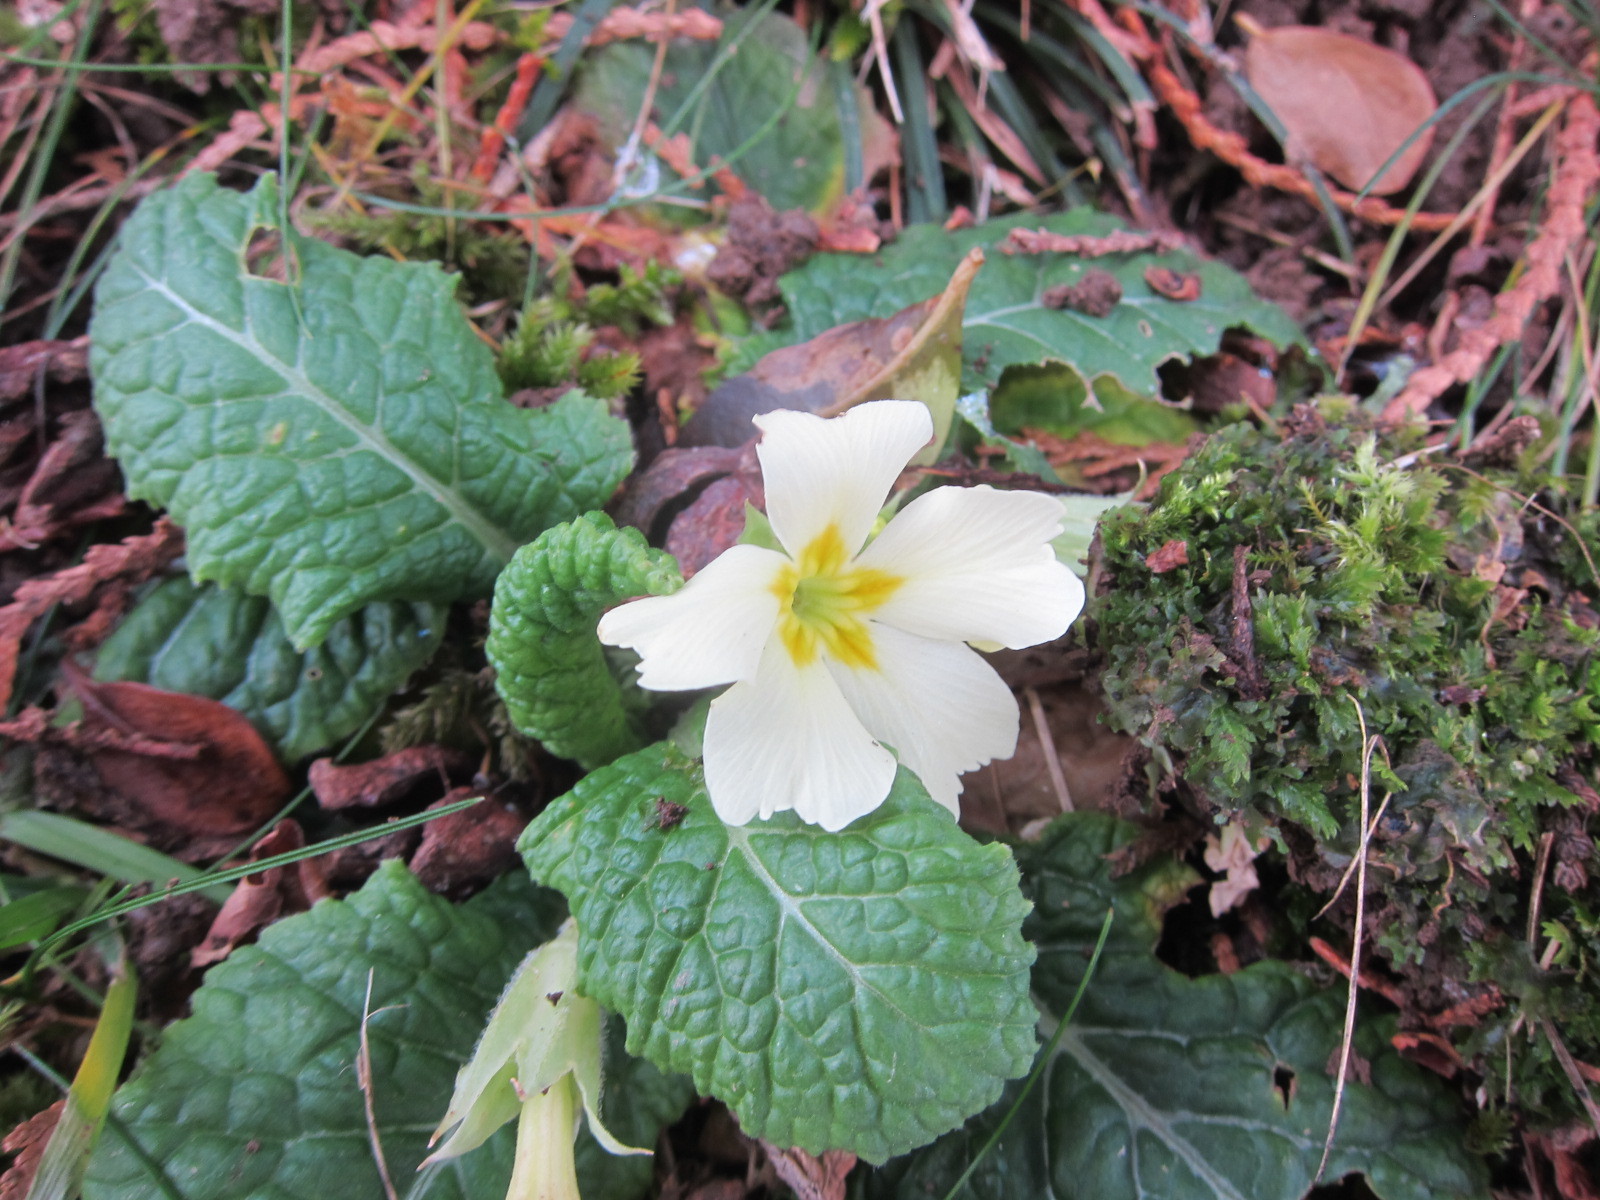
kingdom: Plantae
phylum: Tracheophyta
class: Magnoliopsida
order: Ericales
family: Primulaceae
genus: Primula
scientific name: Primula vulgaris
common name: Primrose
